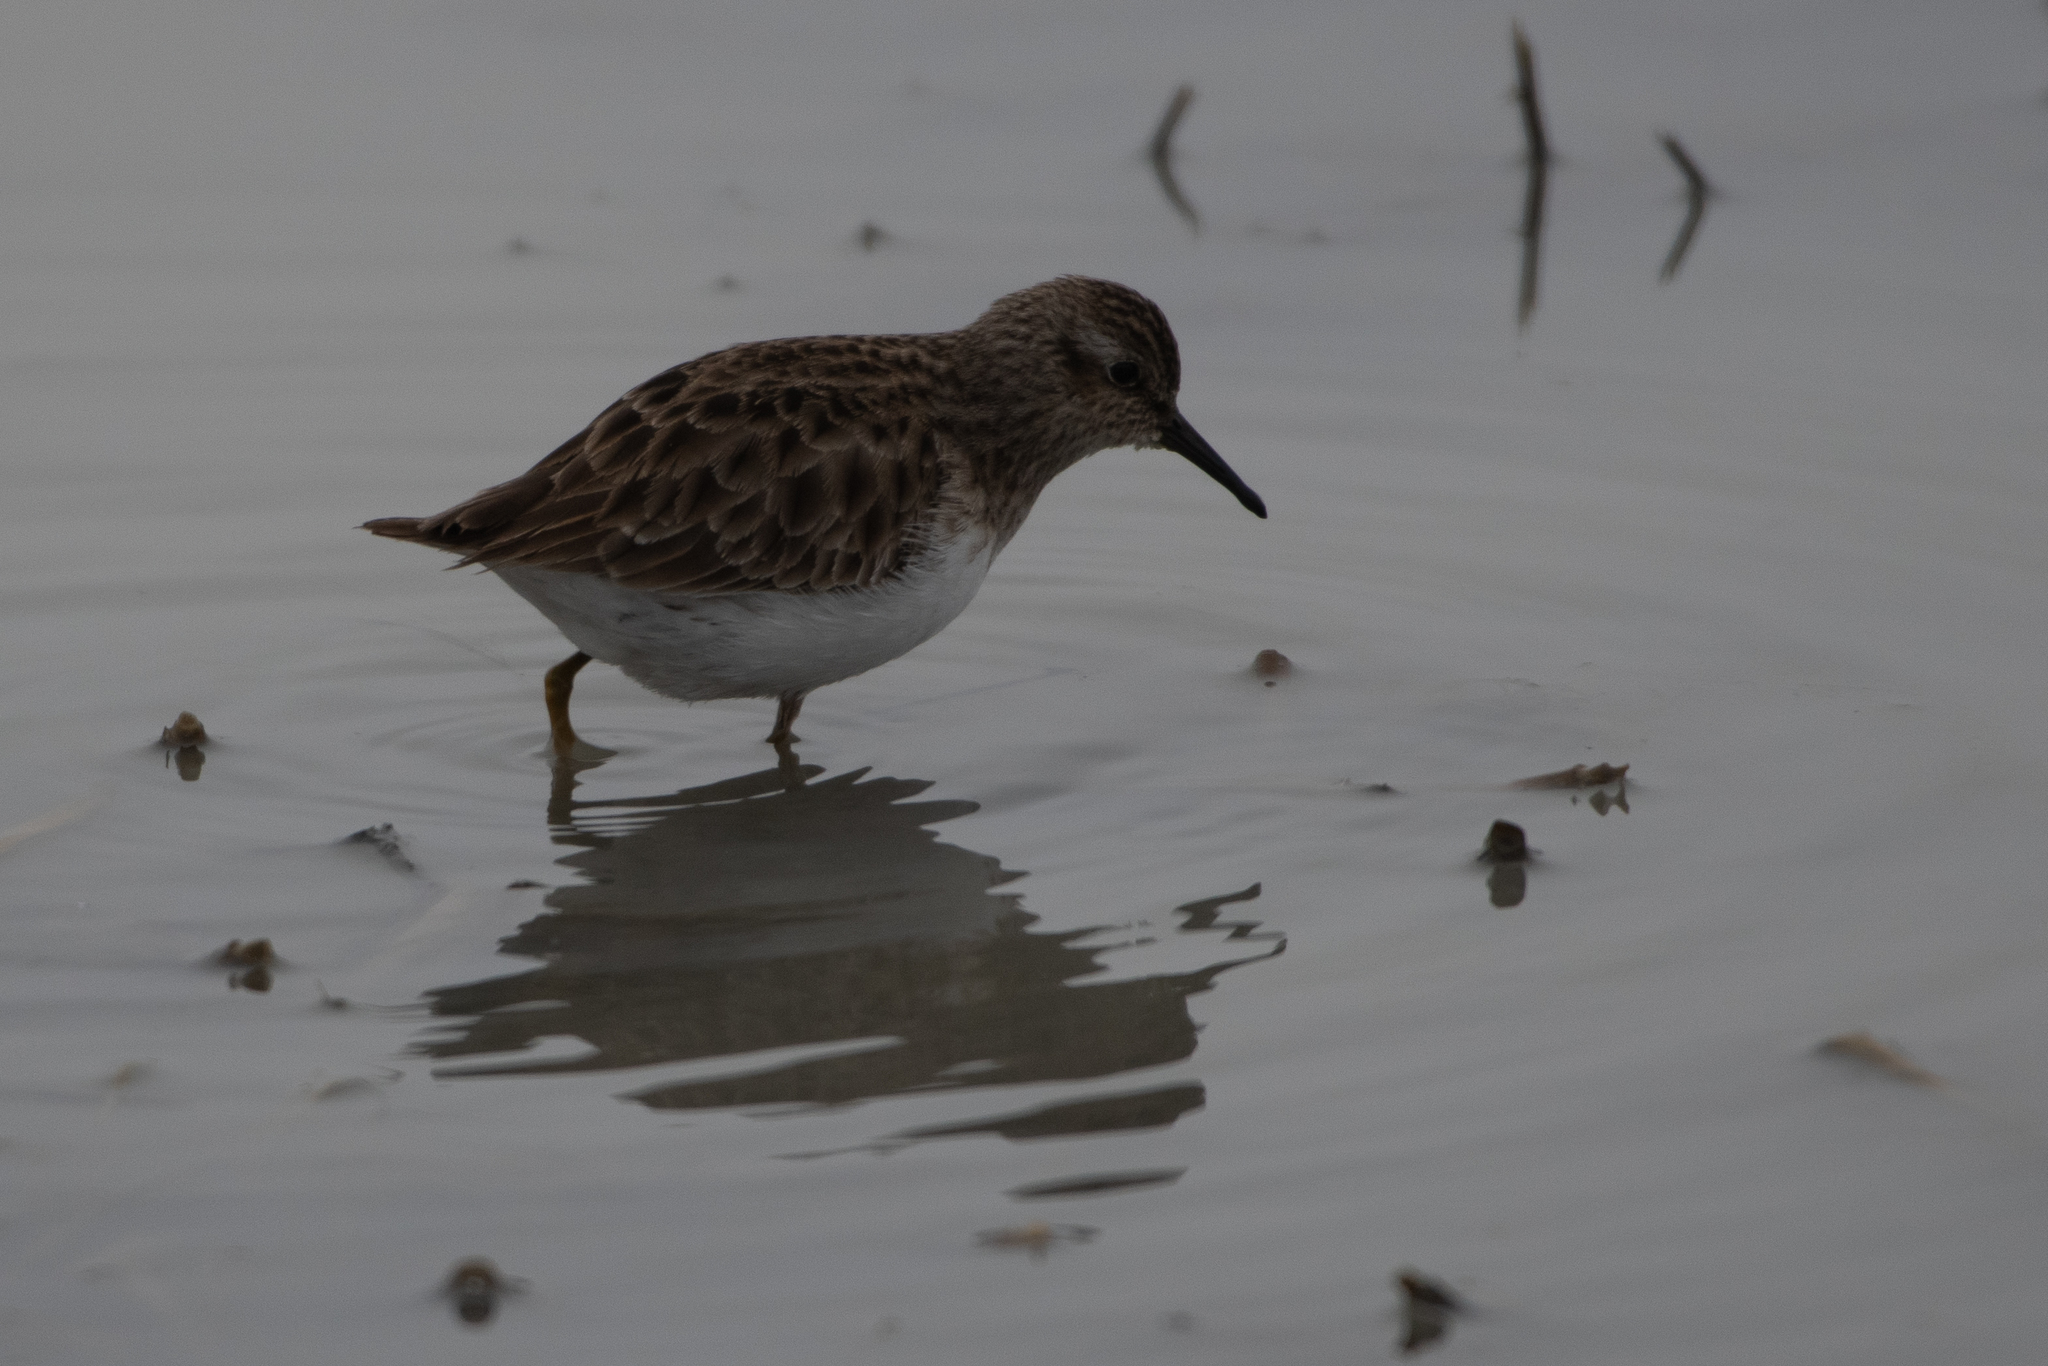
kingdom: Animalia
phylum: Chordata
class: Aves
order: Charadriiformes
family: Scolopacidae
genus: Calidris
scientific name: Calidris minutilla
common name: Least sandpiper
